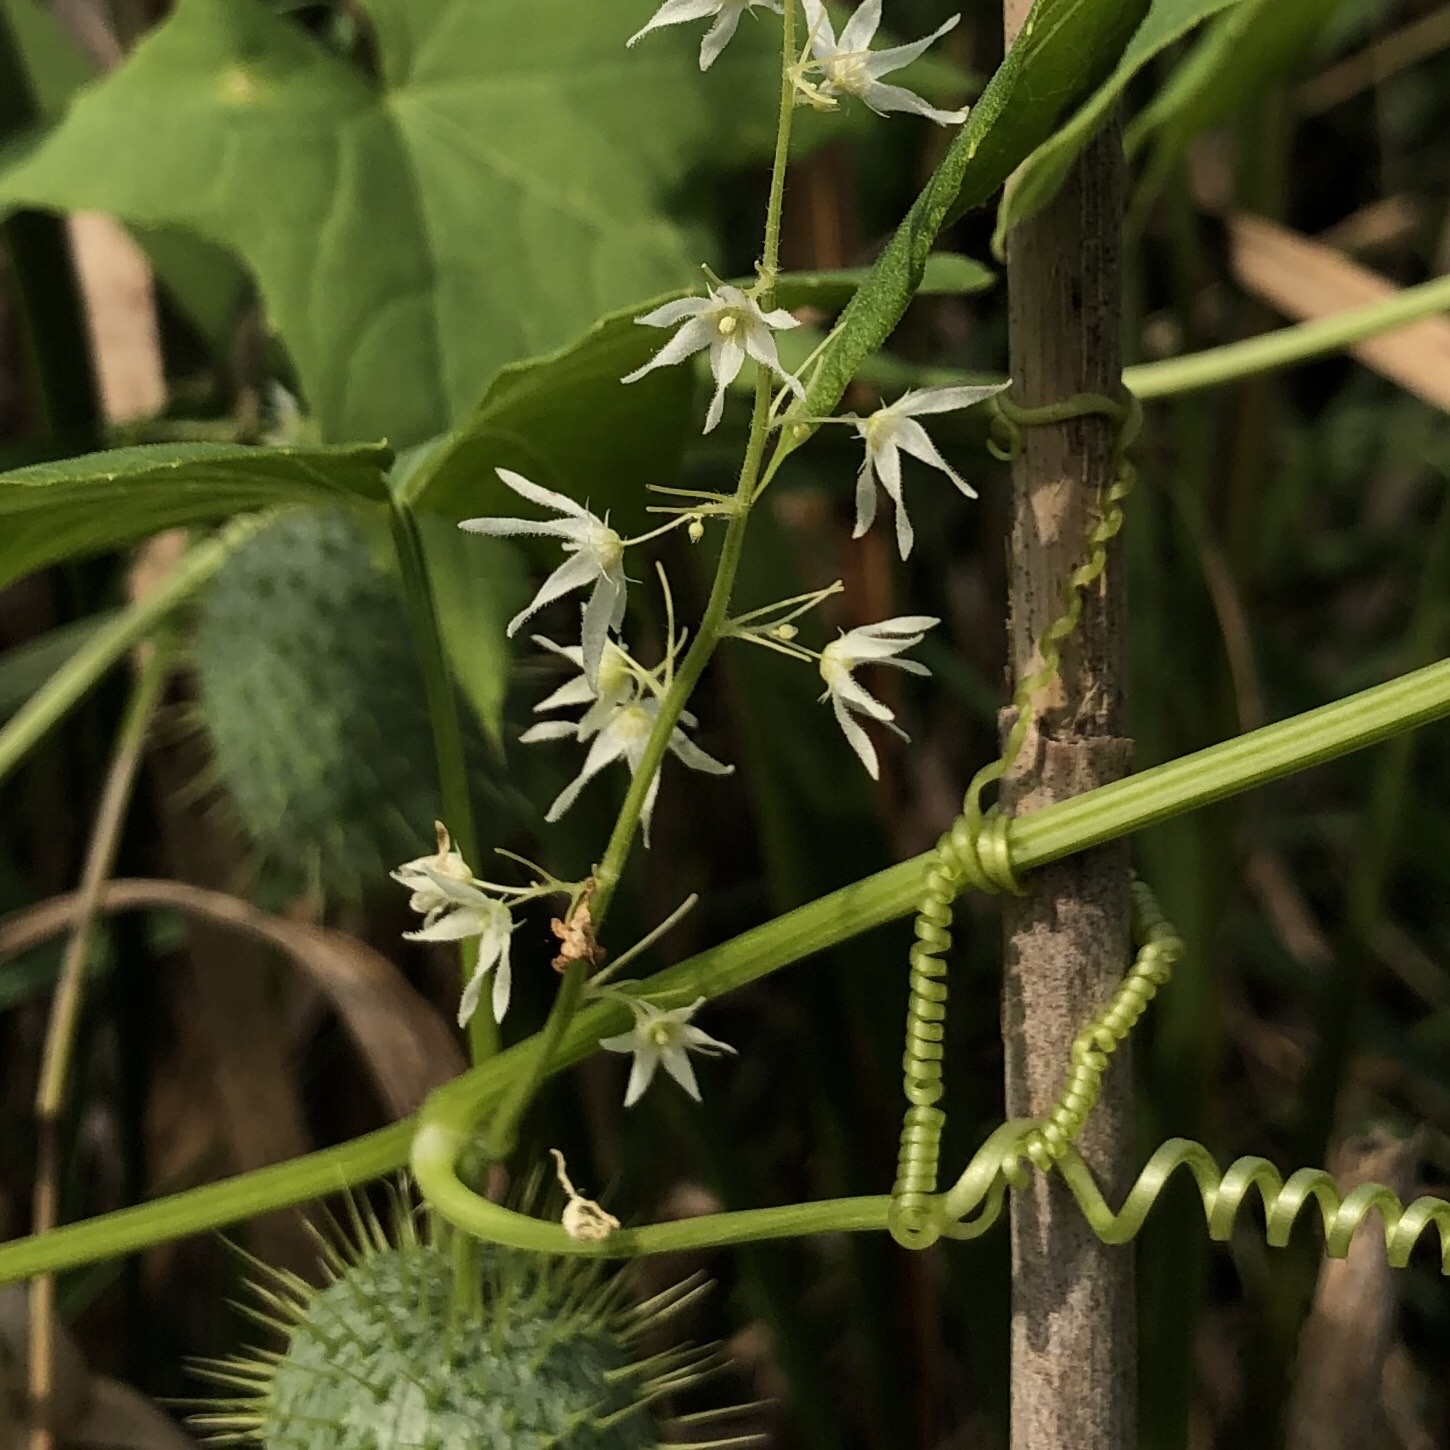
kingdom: Plantae
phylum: Tracheophyta
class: Magnoliopsida
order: Cucurbitales
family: Cucurbitaceae
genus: Echinocystis
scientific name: Echinocystis lobata
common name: Wild cucumber
